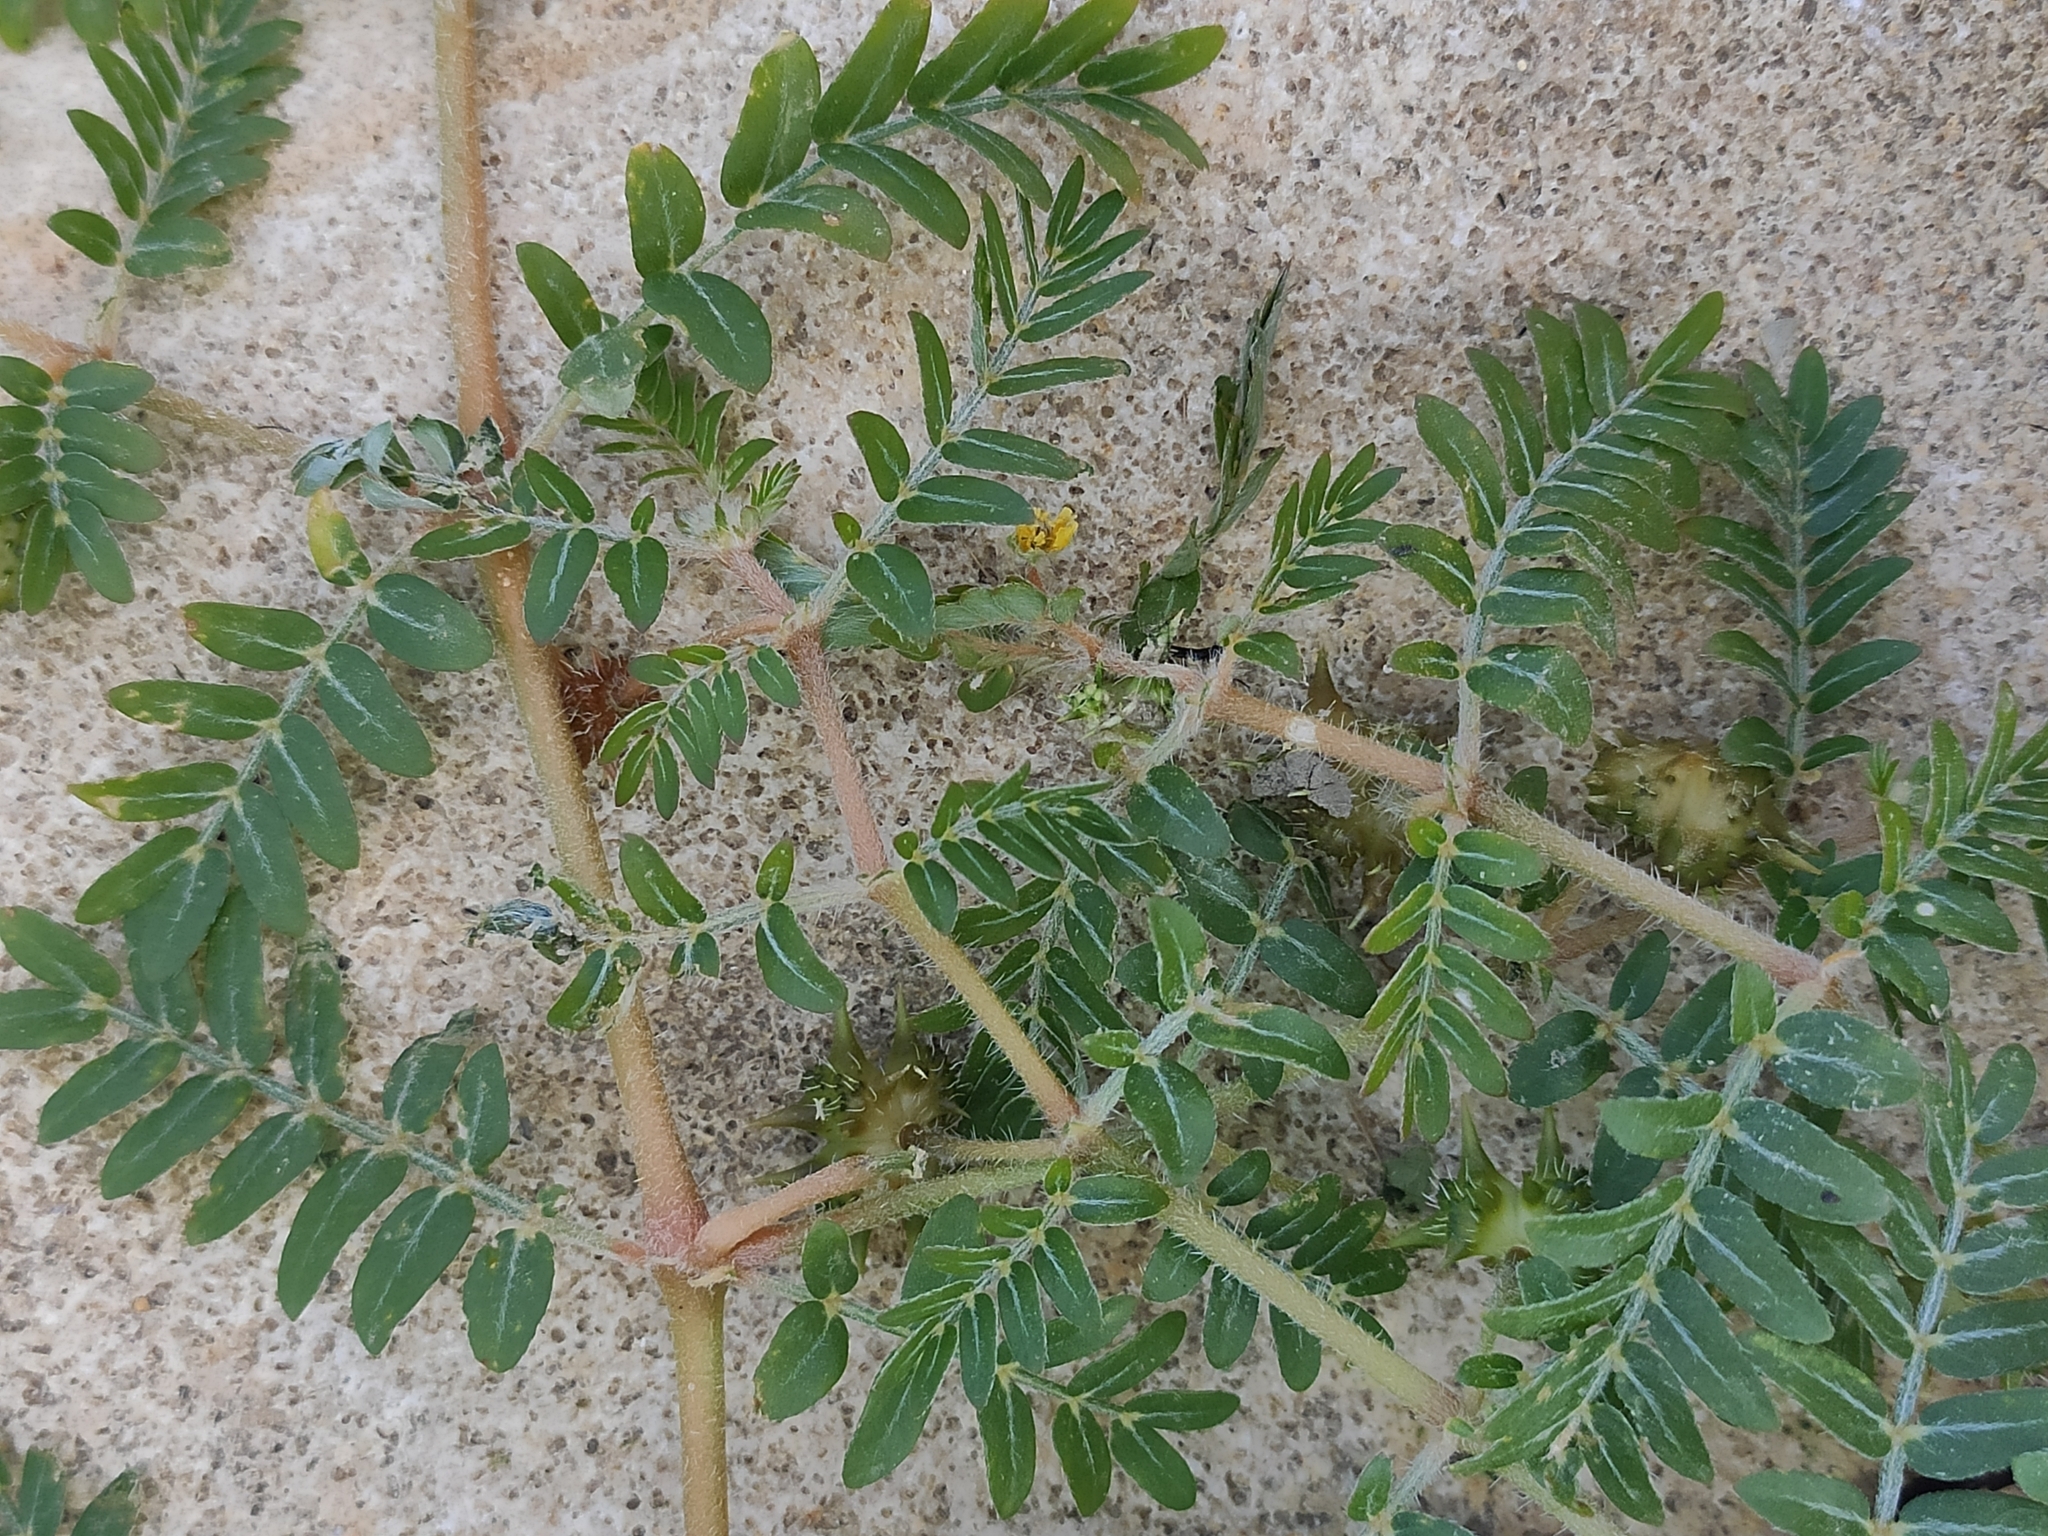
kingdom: Plantae
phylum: Tracheophyta
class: Magnoliopsida
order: Zygophyllales
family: Zygophyllaceae
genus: Tribulus
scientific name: Tribulus terrestris
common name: Puncturevine
